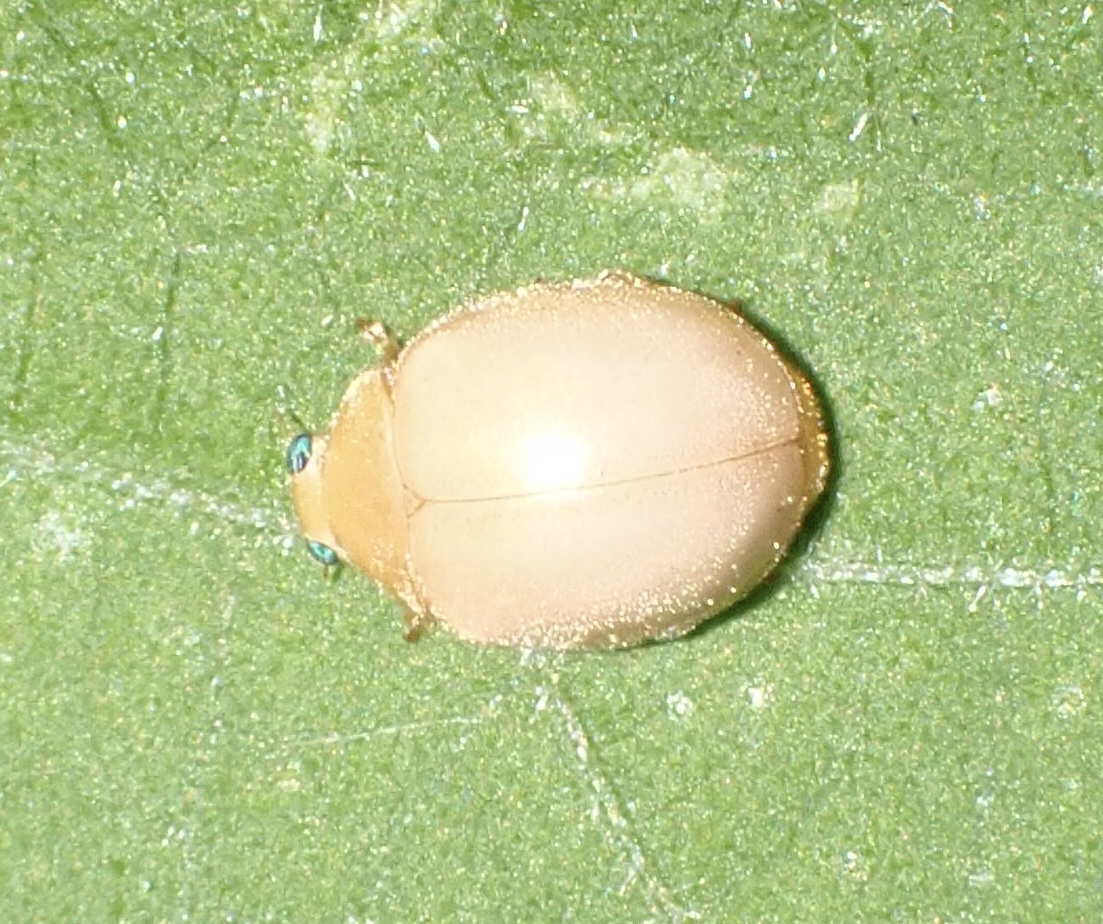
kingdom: Animalia
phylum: Arthropoda
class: Insecta
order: Hymenoptera
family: Ichneumonidae
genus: Ortezia
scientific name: Ortezia ochracea
